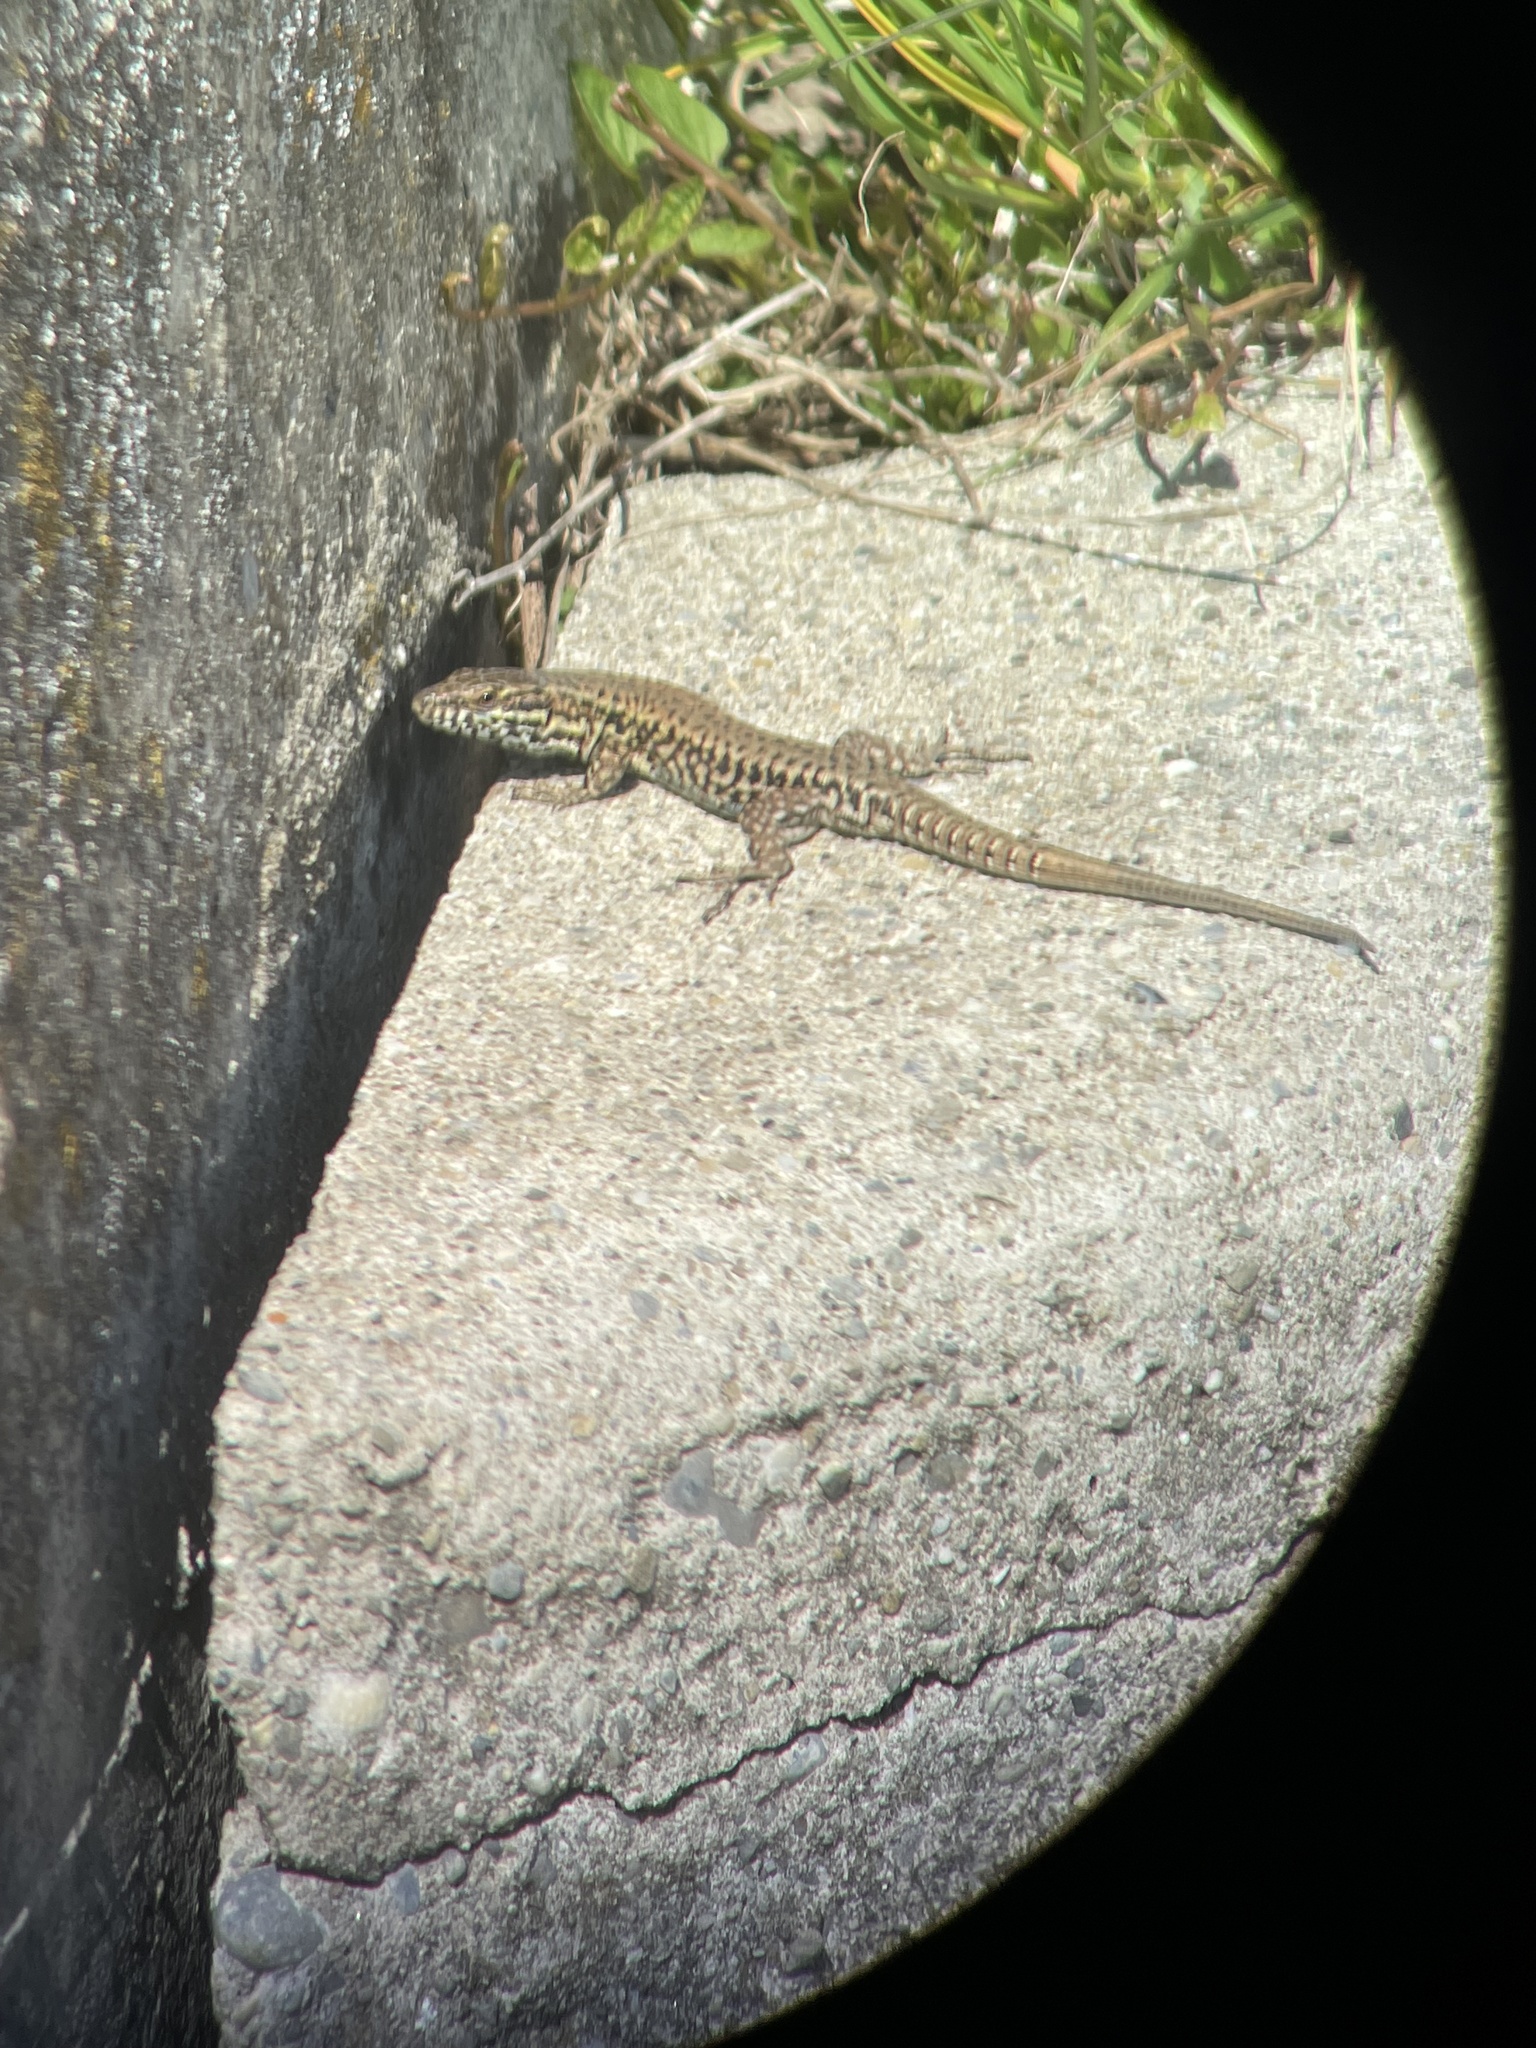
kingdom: Animalia
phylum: Chordata
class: Squamata
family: Lacertidae
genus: Podarcis
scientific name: Podarcis muralis
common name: Common wall lizard
